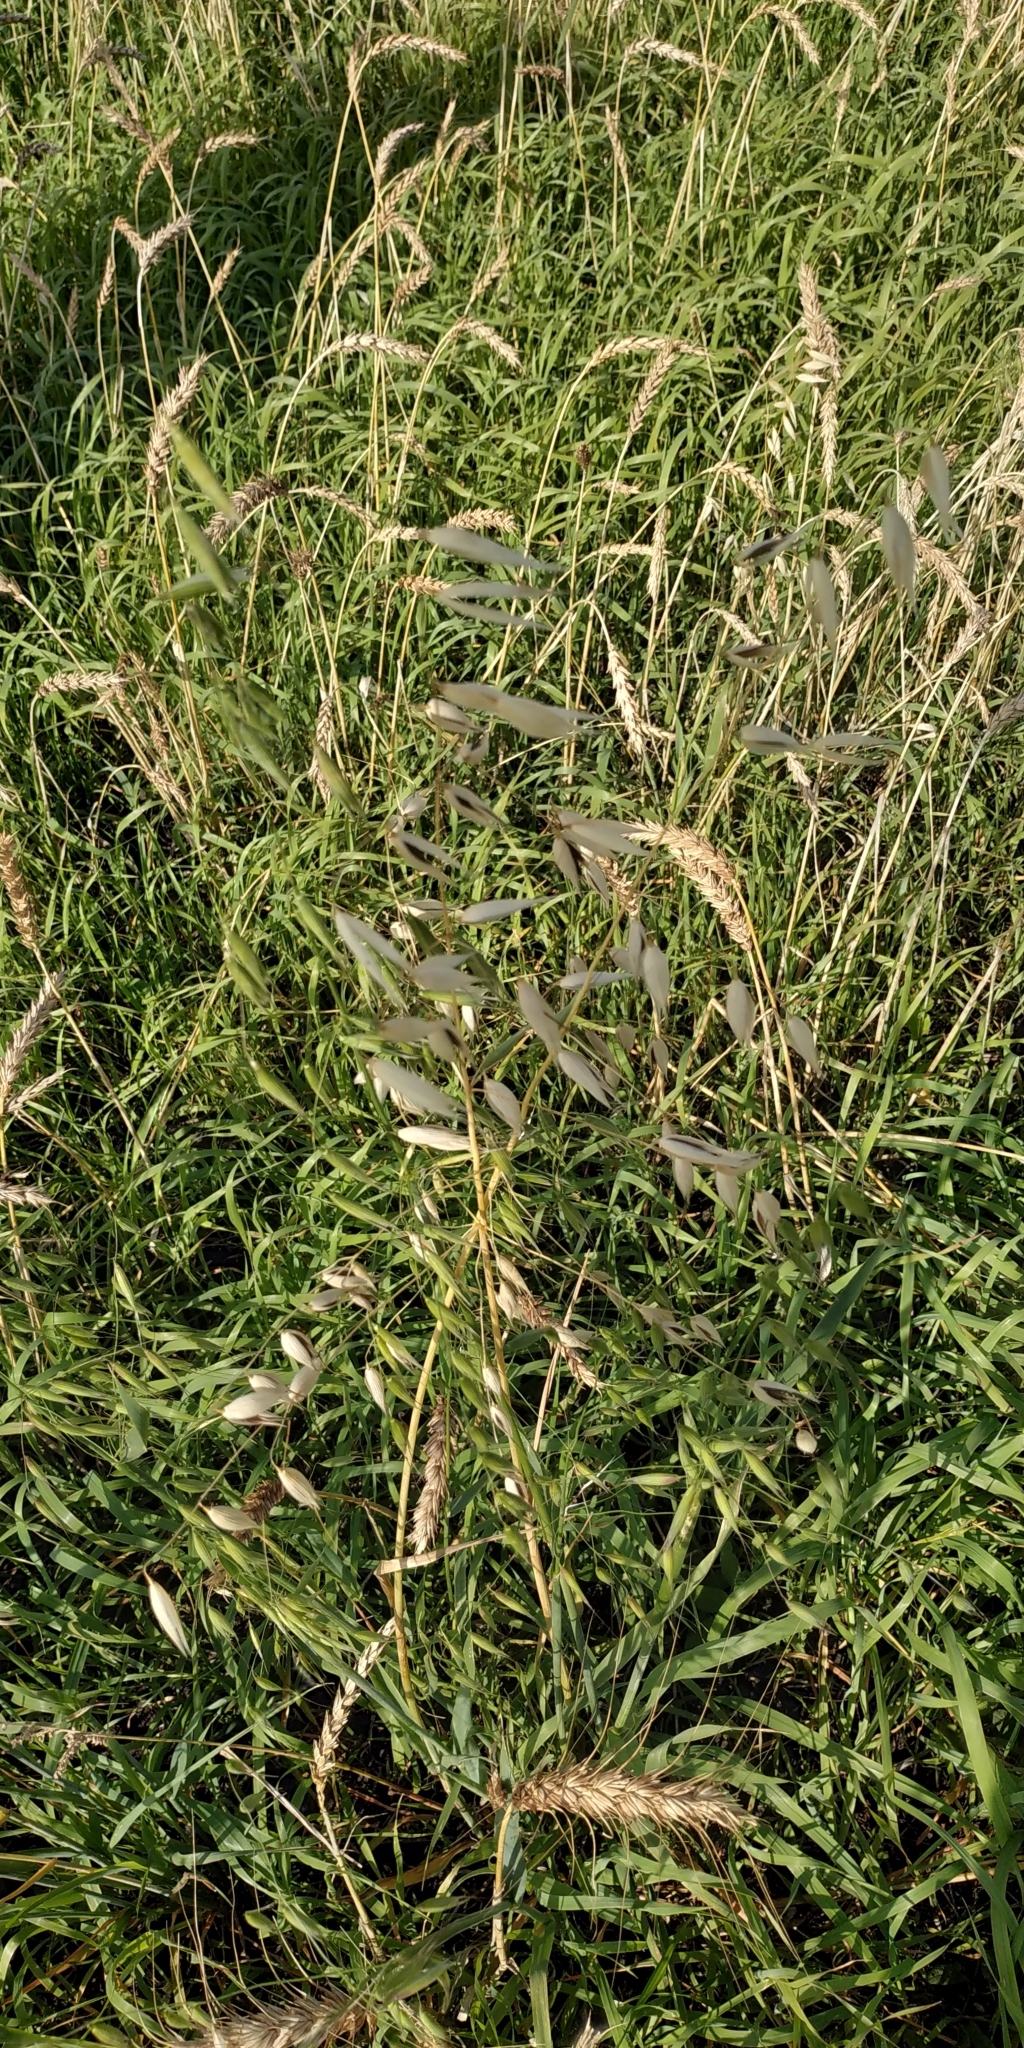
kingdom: Plantae
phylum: Tracheophyta
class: Liliopsida
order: Poales
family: Poaceae
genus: Avena
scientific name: Avena fatua
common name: Wild oat
